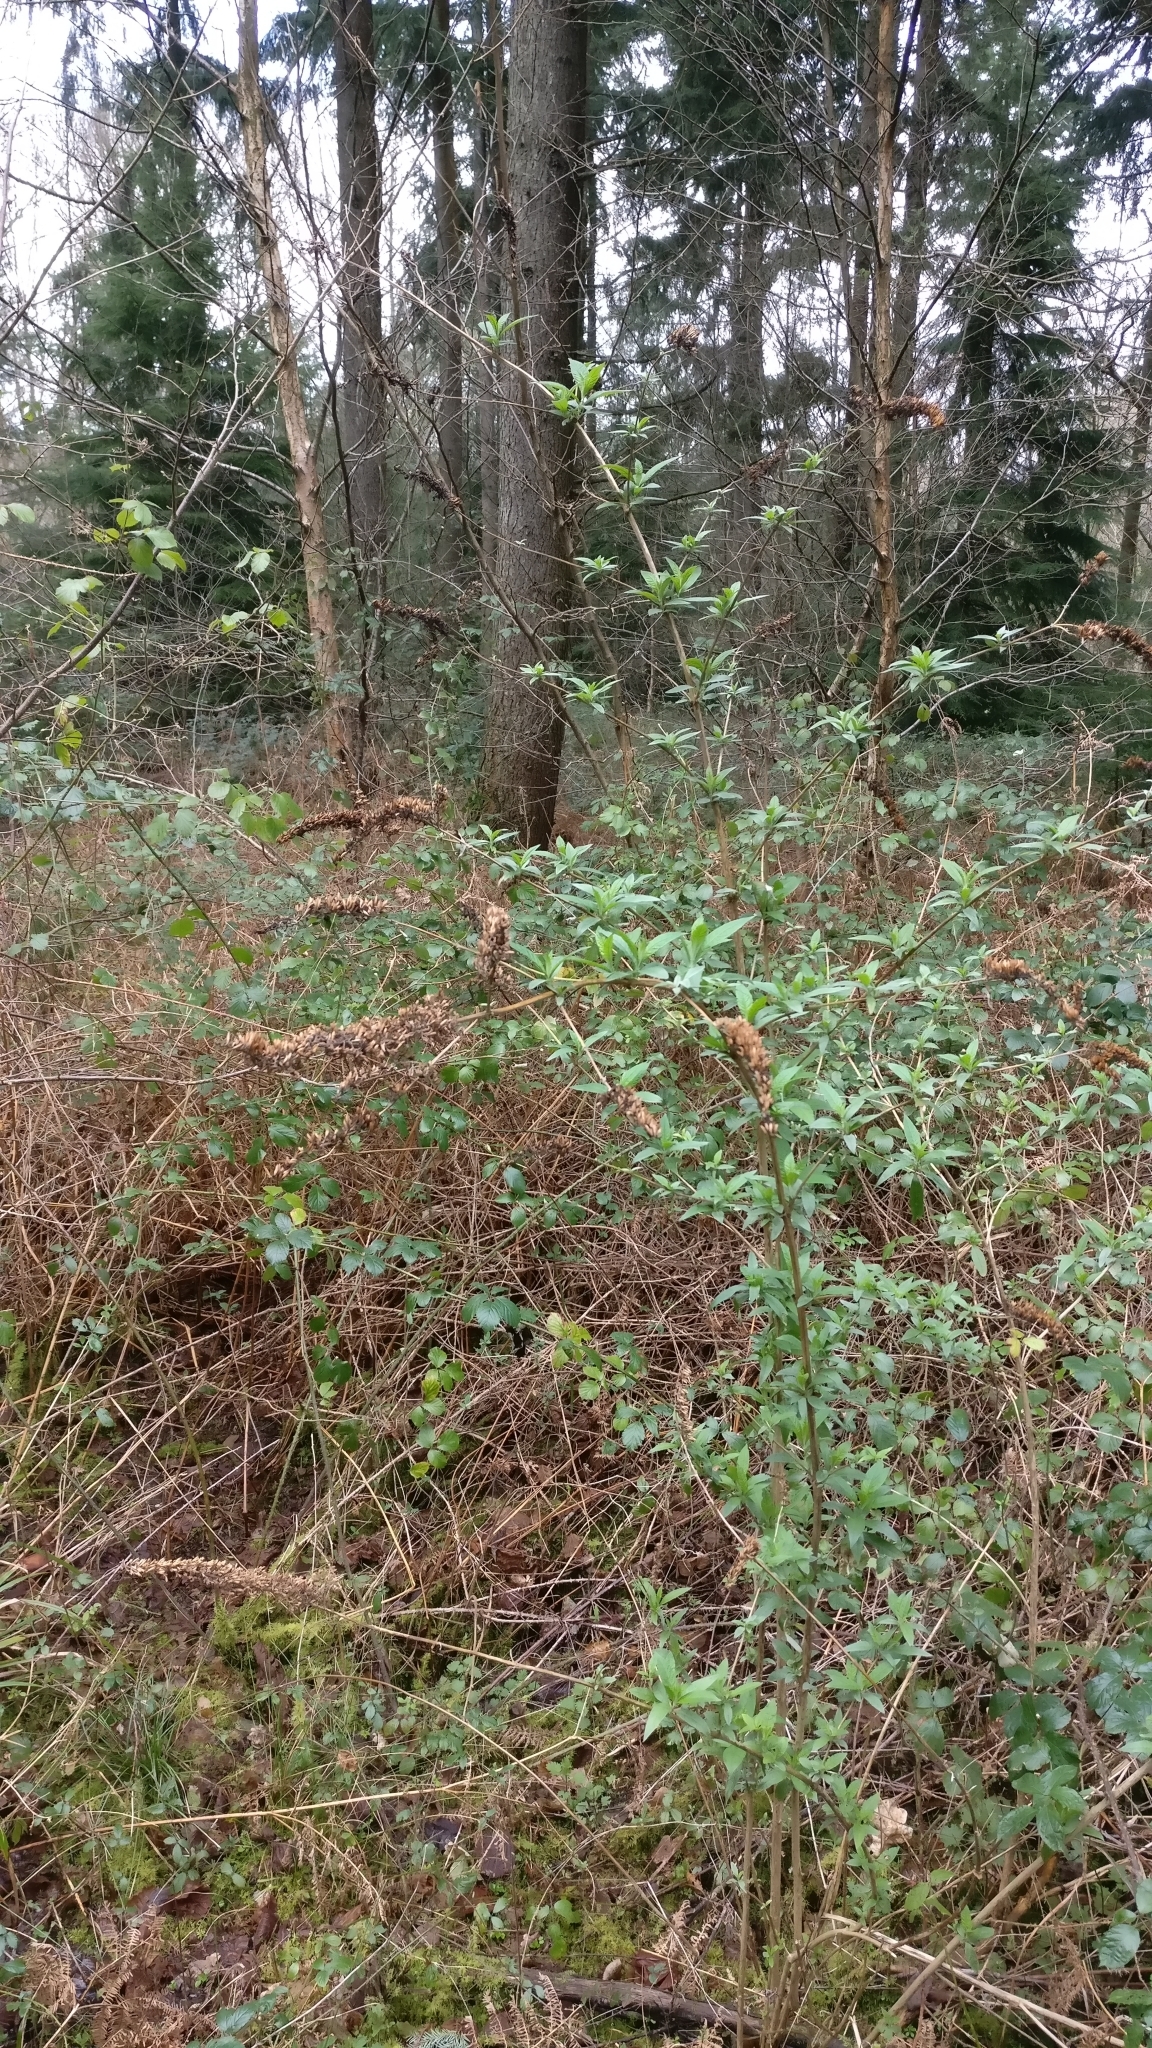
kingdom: Plantae
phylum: Tracheophyta
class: Magnoliopsida
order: Lamiales
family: Scrophulariaceae
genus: Buddleja
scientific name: Buddleja davidii
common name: Butterfly-bush
